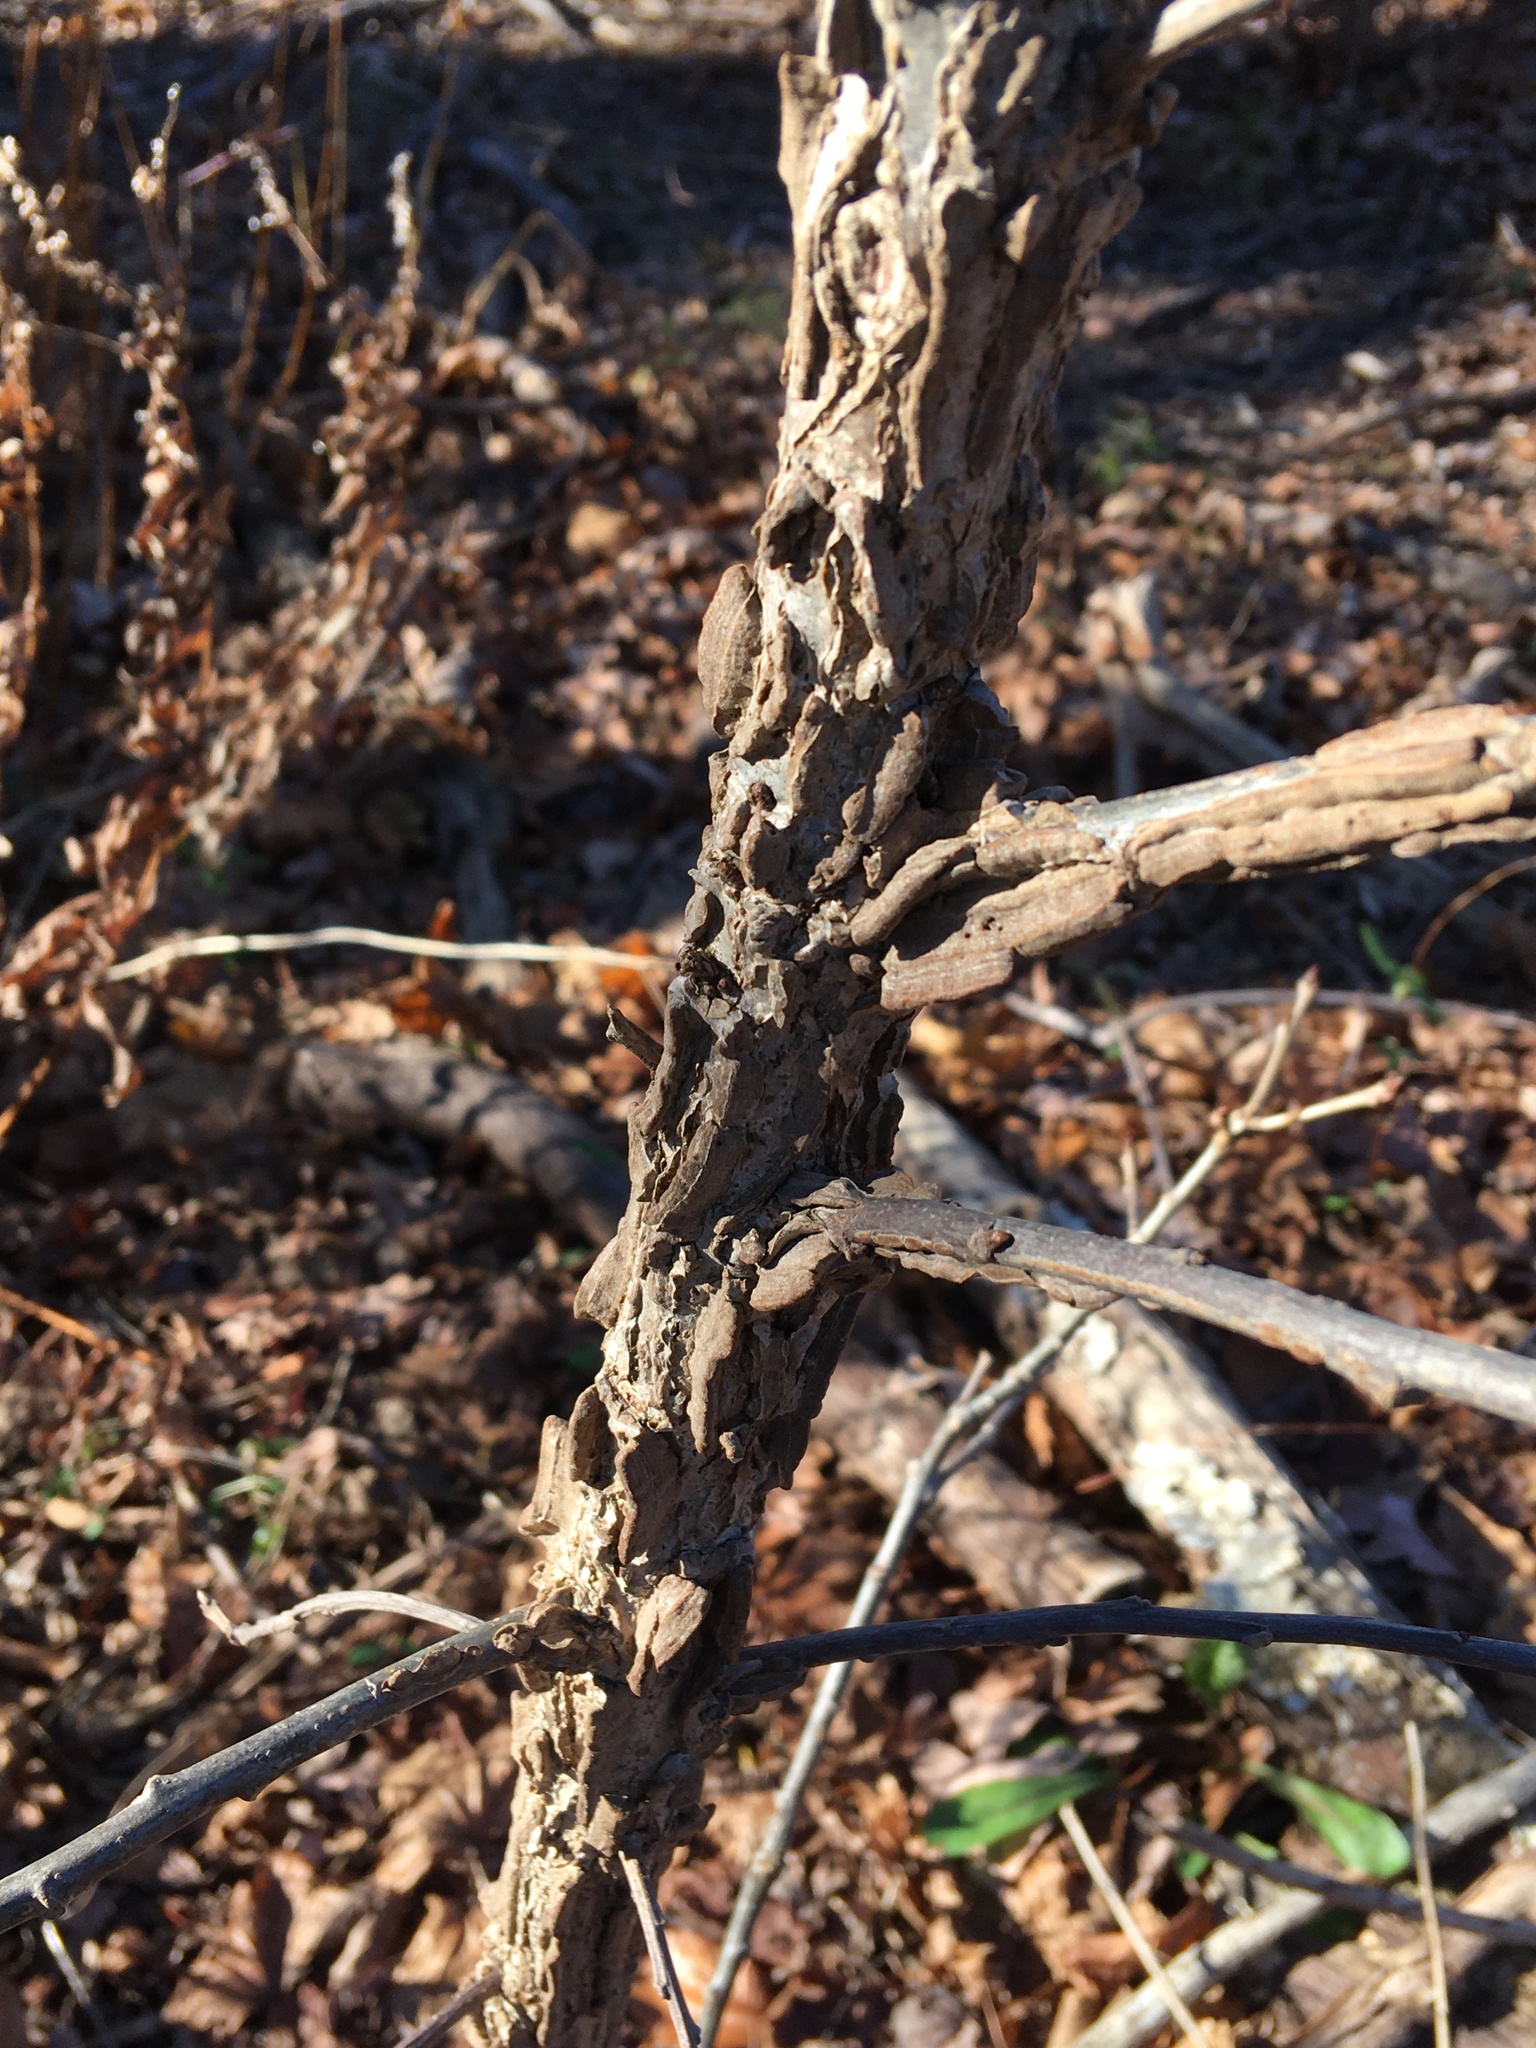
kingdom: Plantae
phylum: Tracheophyta
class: Magnoliopsida
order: Saxifragales
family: Altingiaceae
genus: Liquidambar
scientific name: Liquidambar styraciflua
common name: Sweet gum
